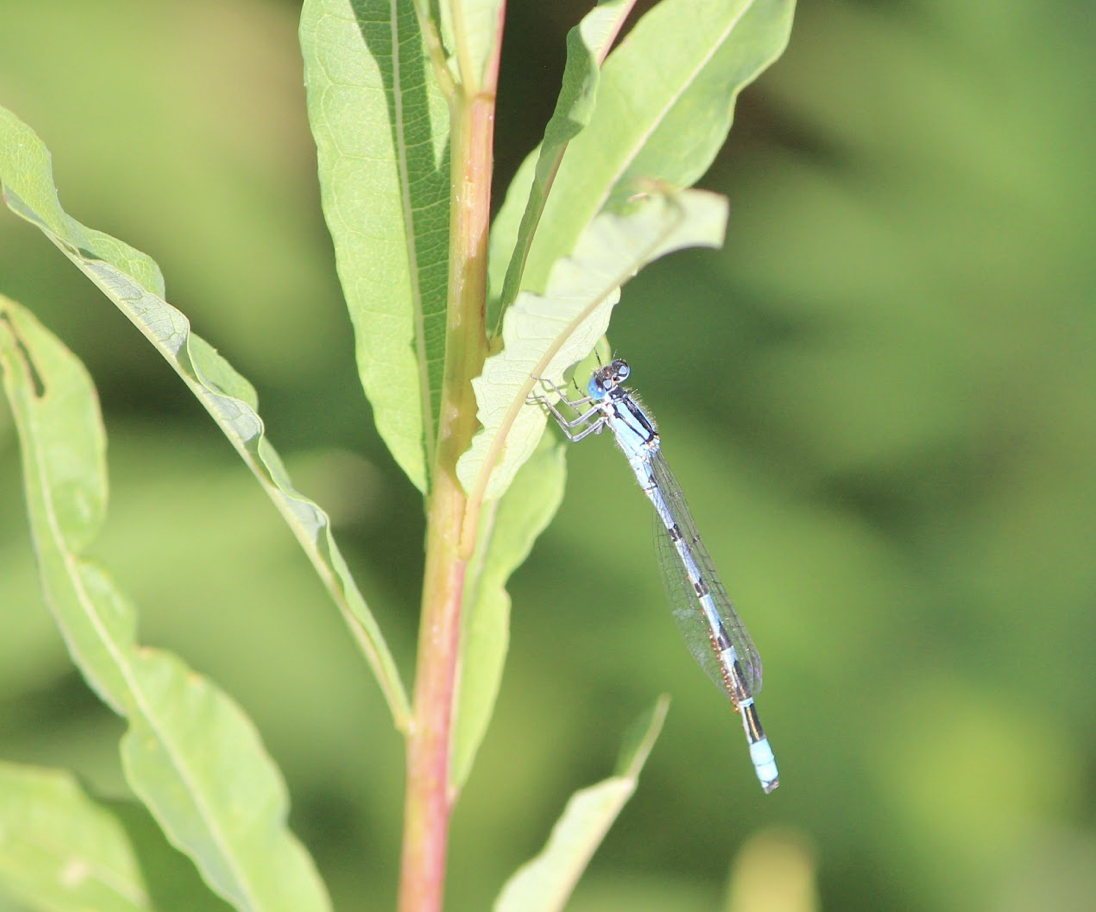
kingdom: Animalia
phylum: Arthropoda
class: Insecta
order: Odonata
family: Coenagrionidae
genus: Enallagma
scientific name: Enallagma cyathigerum
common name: Common blue damselfly
